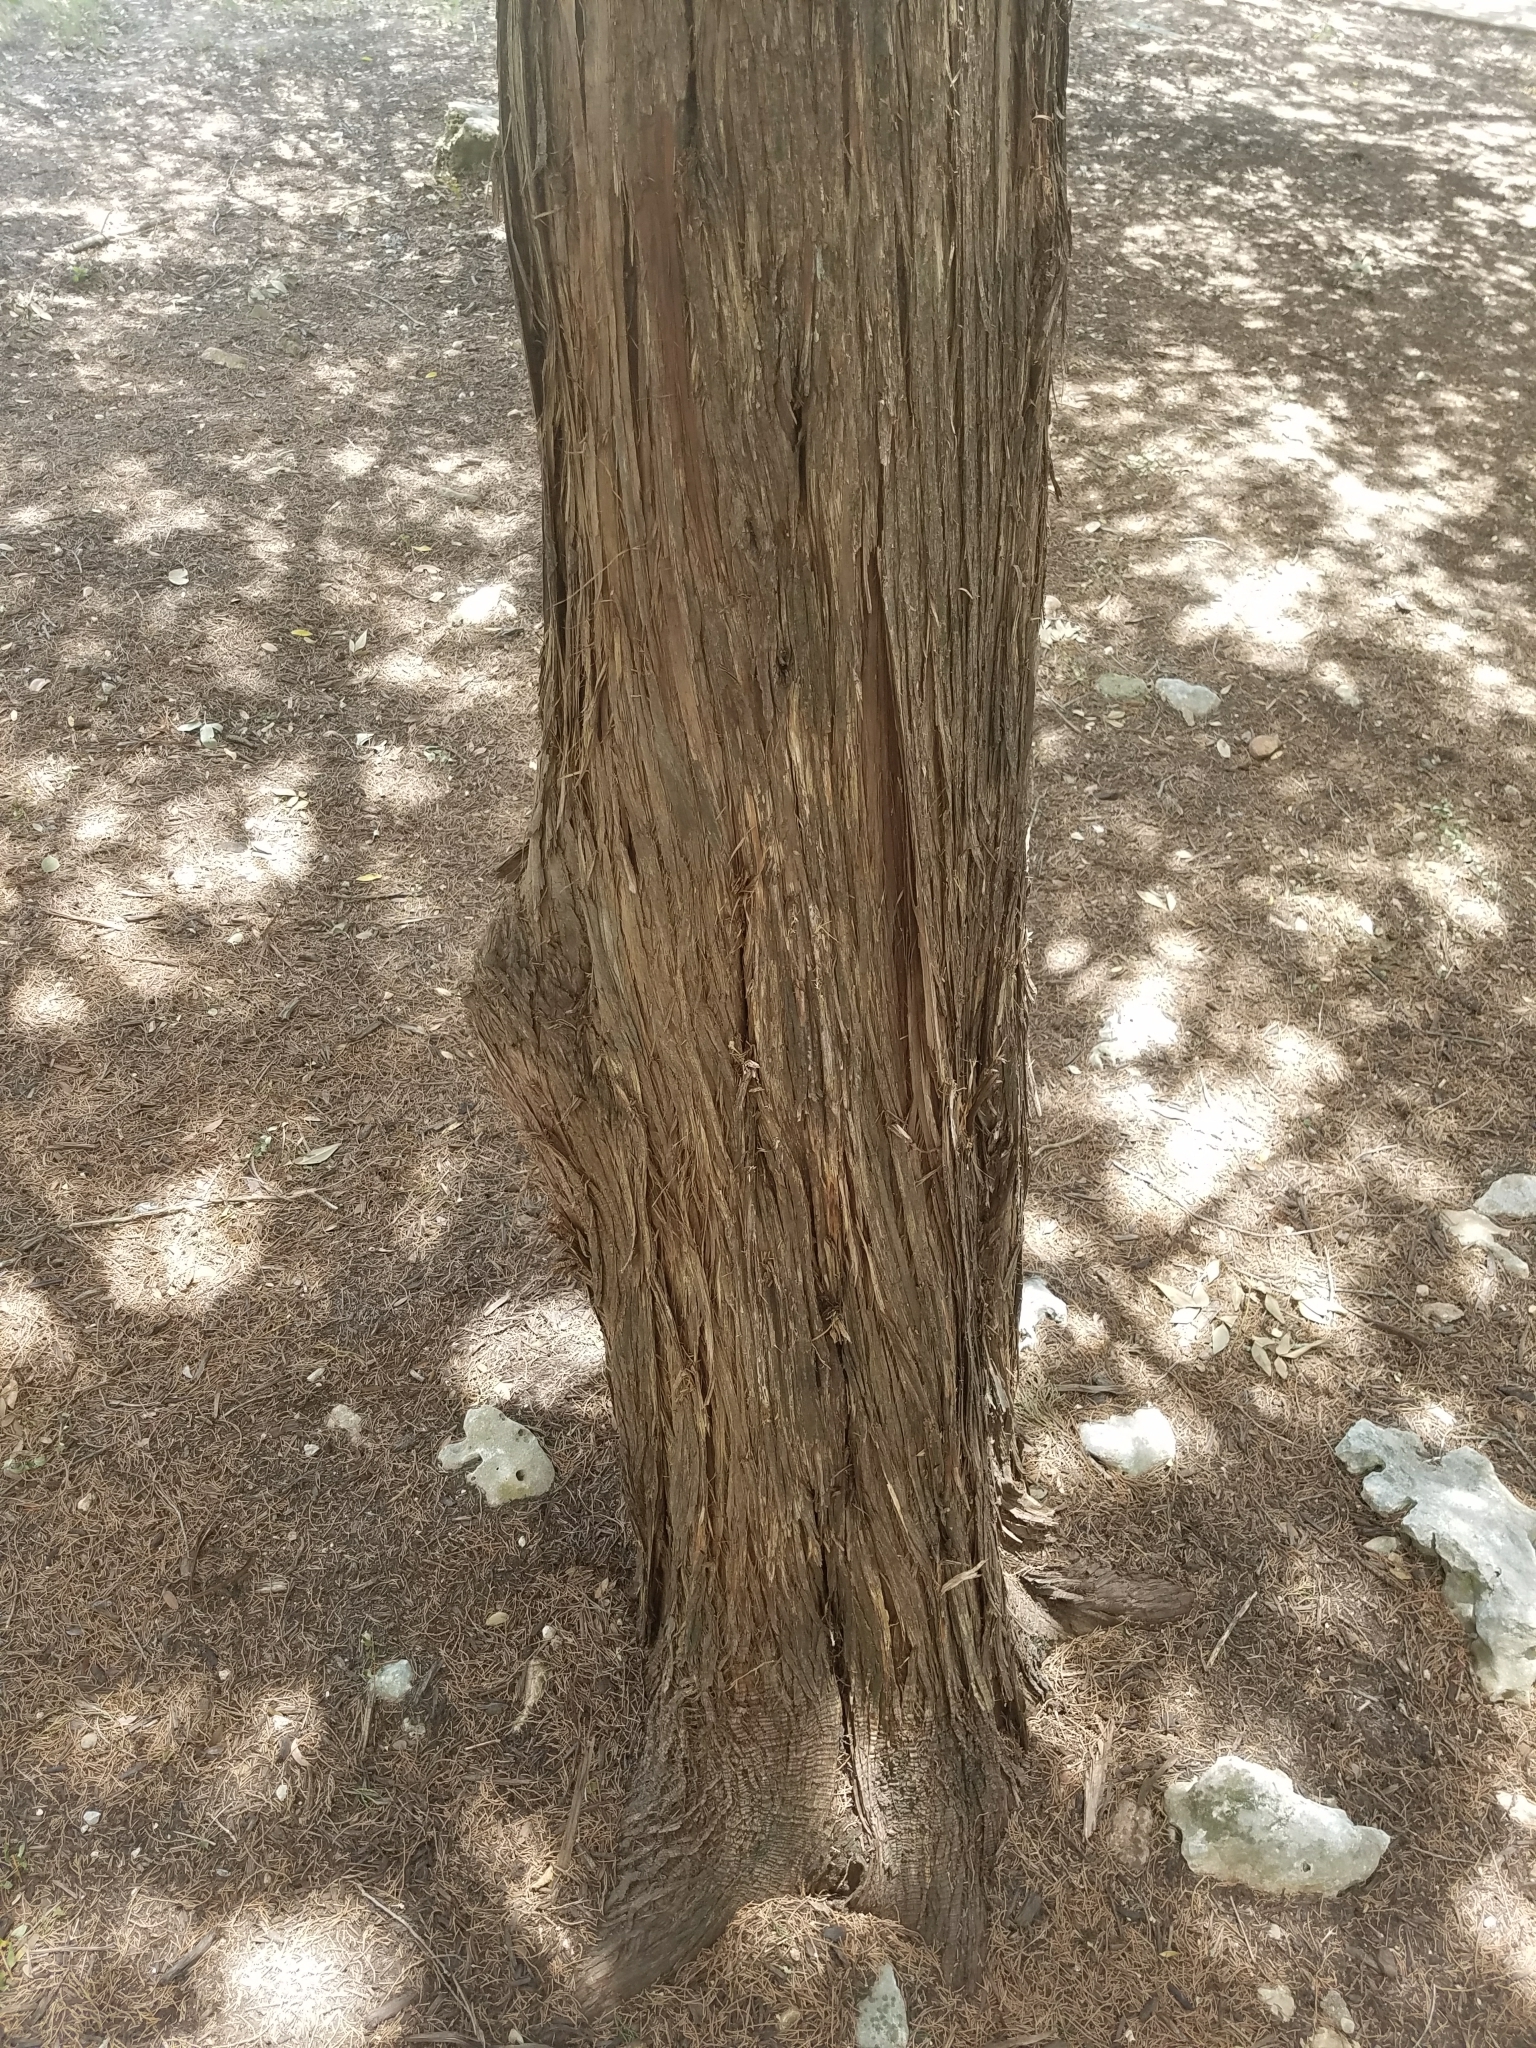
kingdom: Plantae
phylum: Tracheophyta
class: Pinopsida
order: Pinales
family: Cupressaceae
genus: Juniperus
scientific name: Juniperus ashei
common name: Mexican juniper
